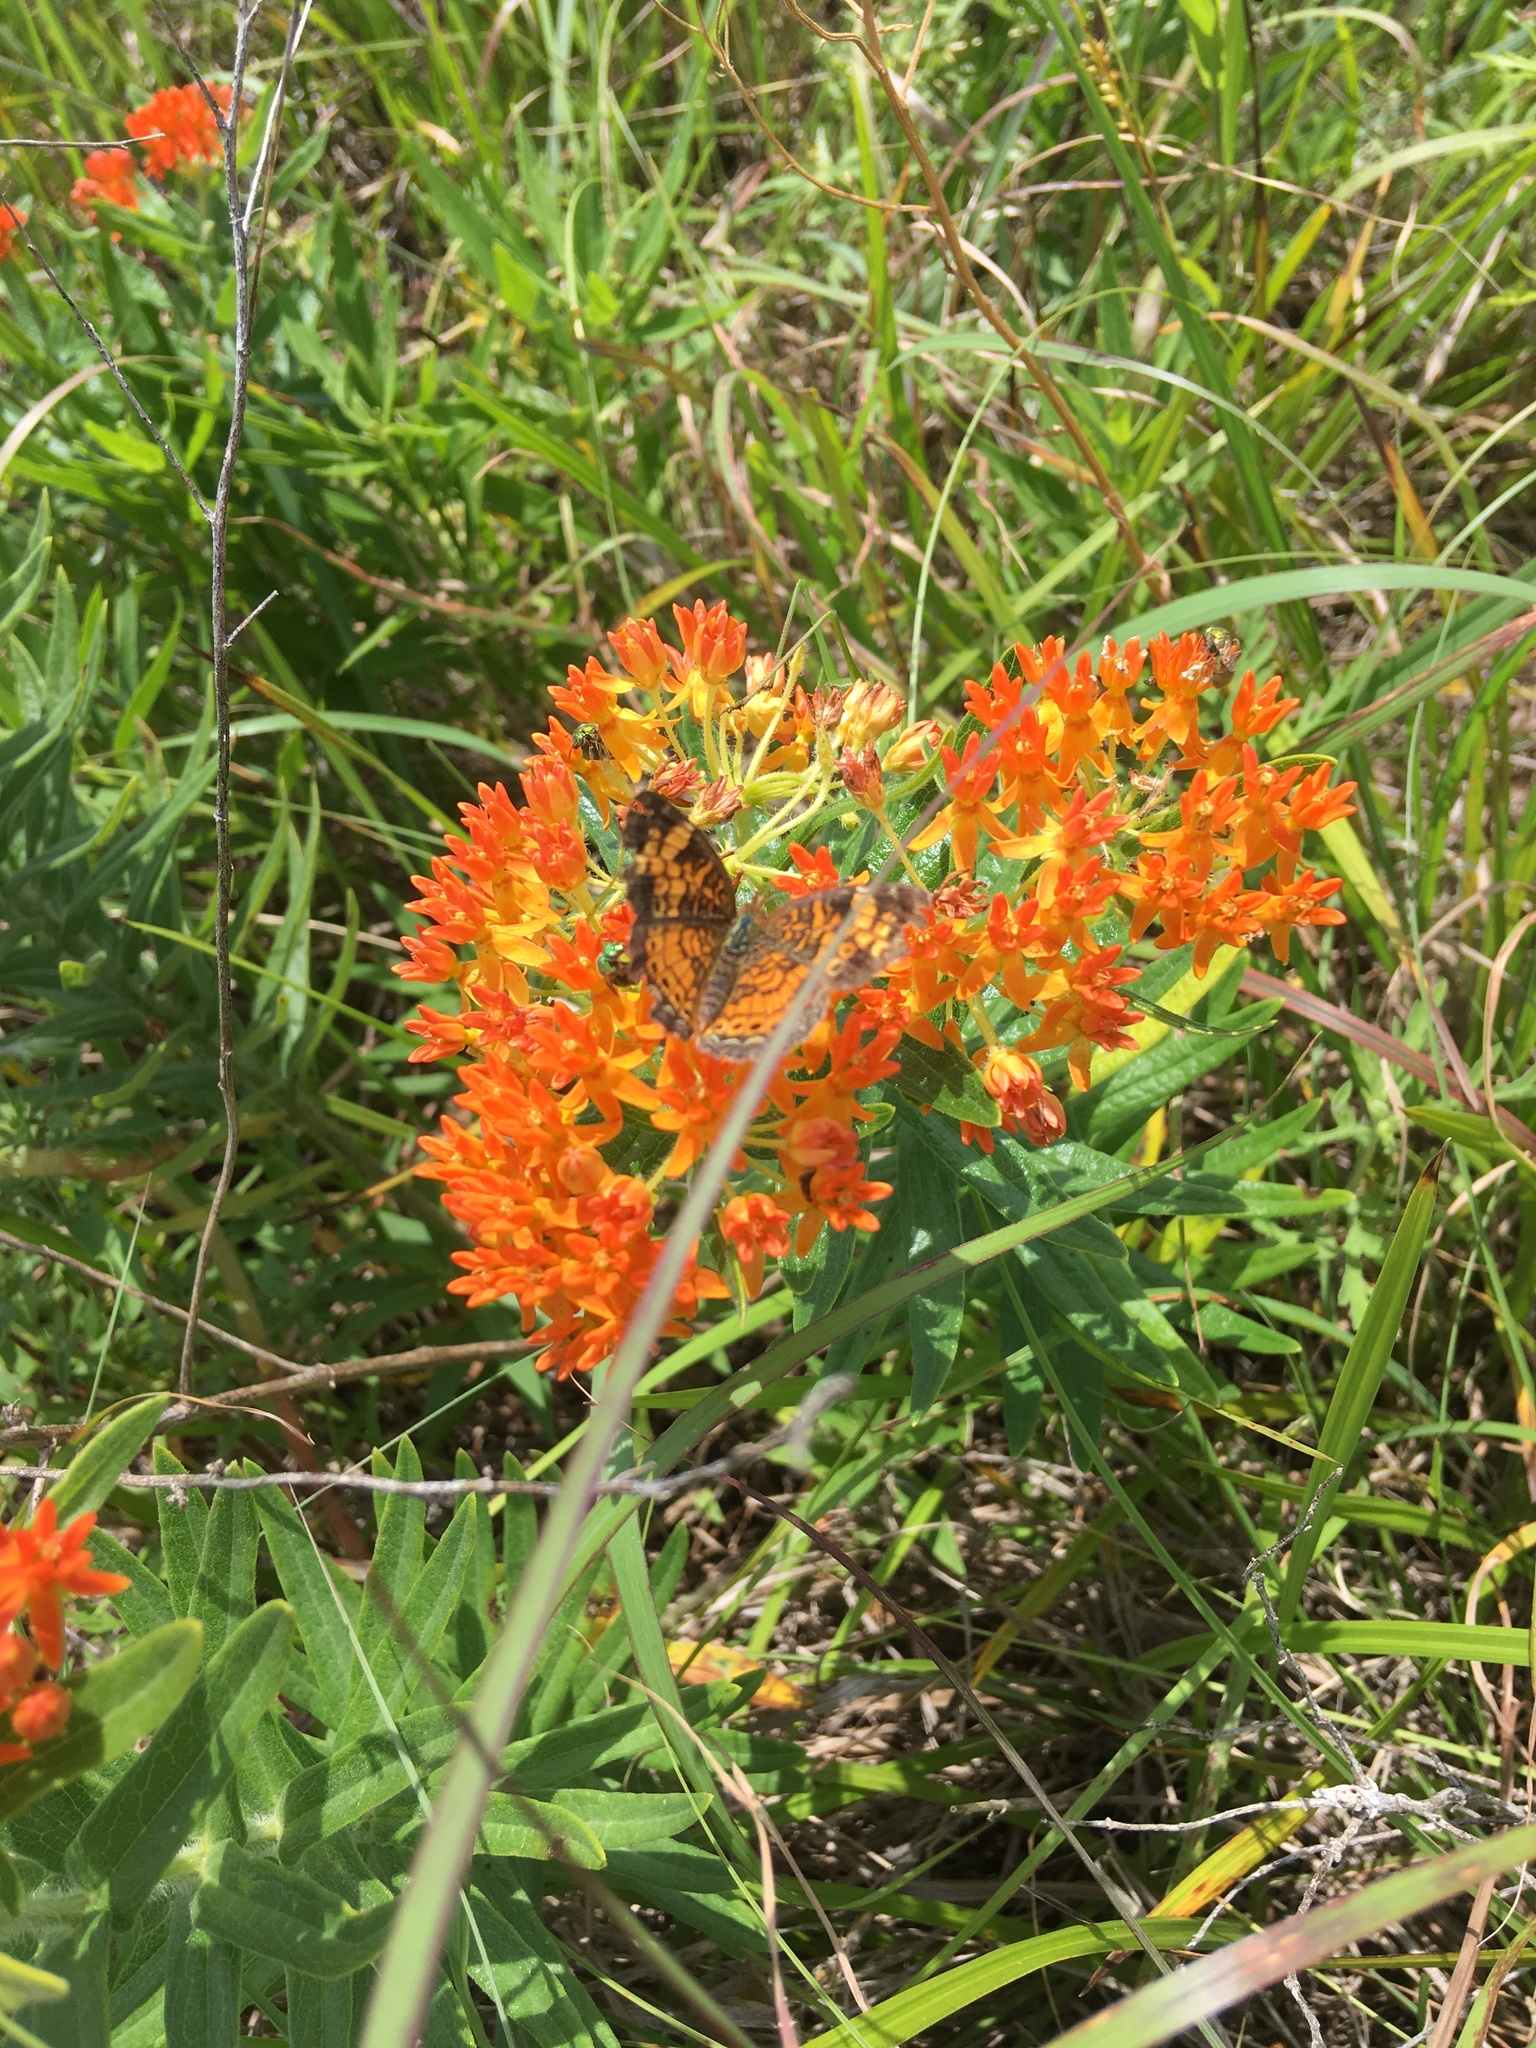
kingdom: Animalia
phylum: Arthropoda
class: Insecta
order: Lepidoptera
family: Nymphalidae
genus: Phyciodes
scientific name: Phyciodes tharos
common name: Pearl crescent
